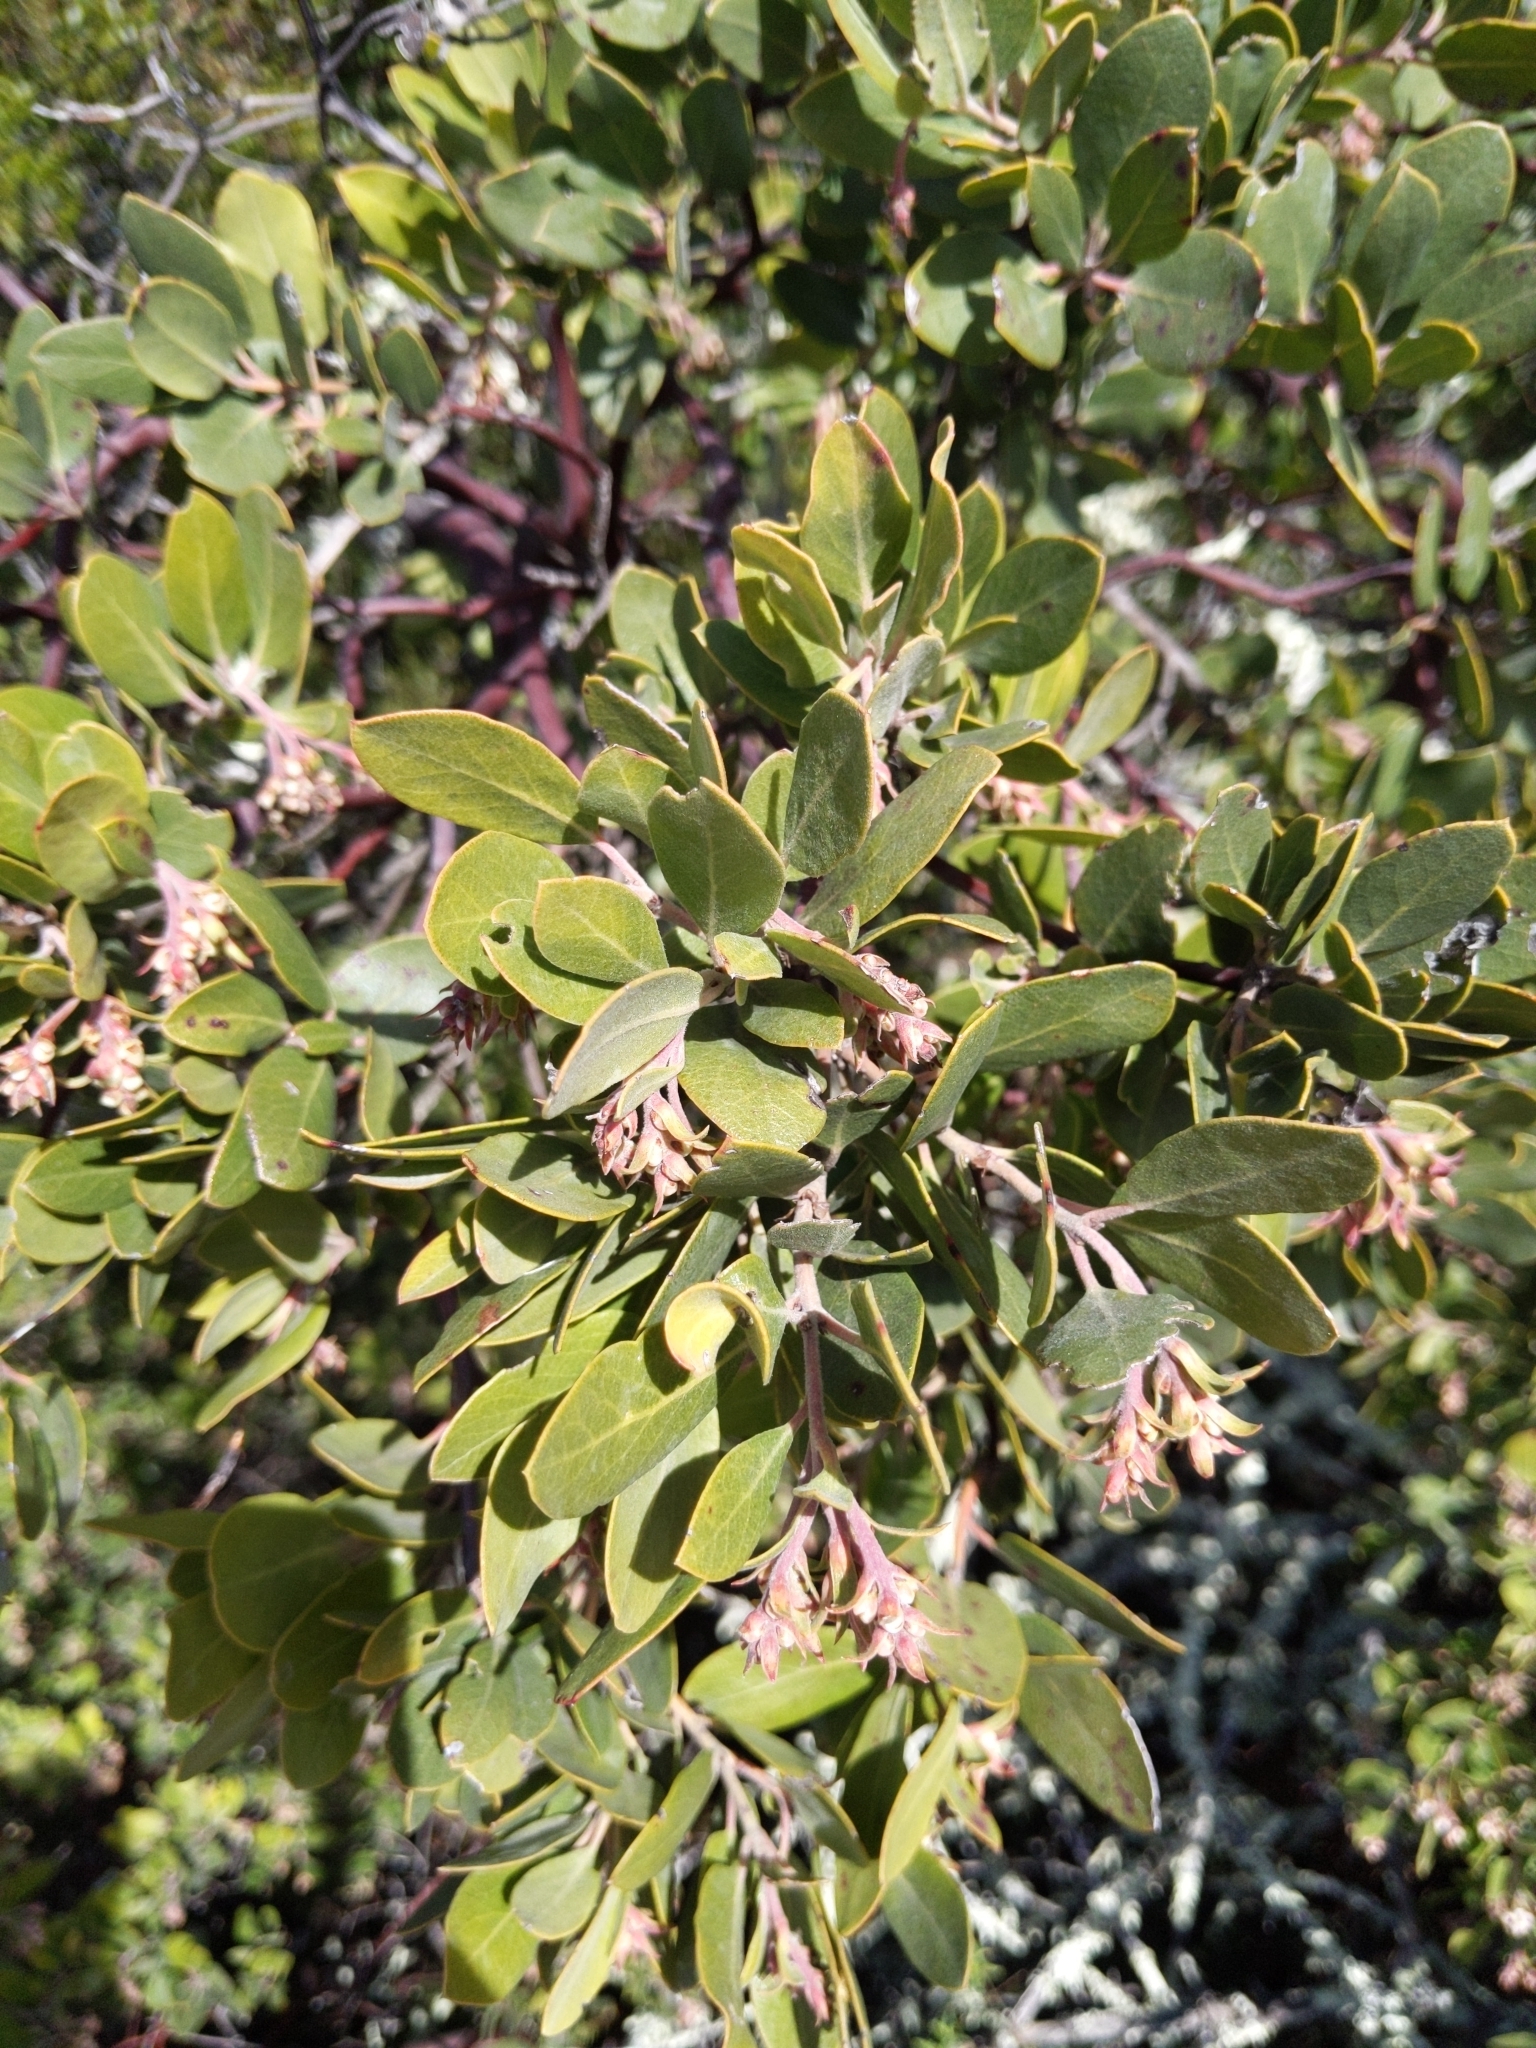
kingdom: Plantae
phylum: Tracheophyta
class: Magnoliopsida
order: Ericales
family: Ericaceae
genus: Arctostaphylos
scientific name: Arctostaphylos crustacea
